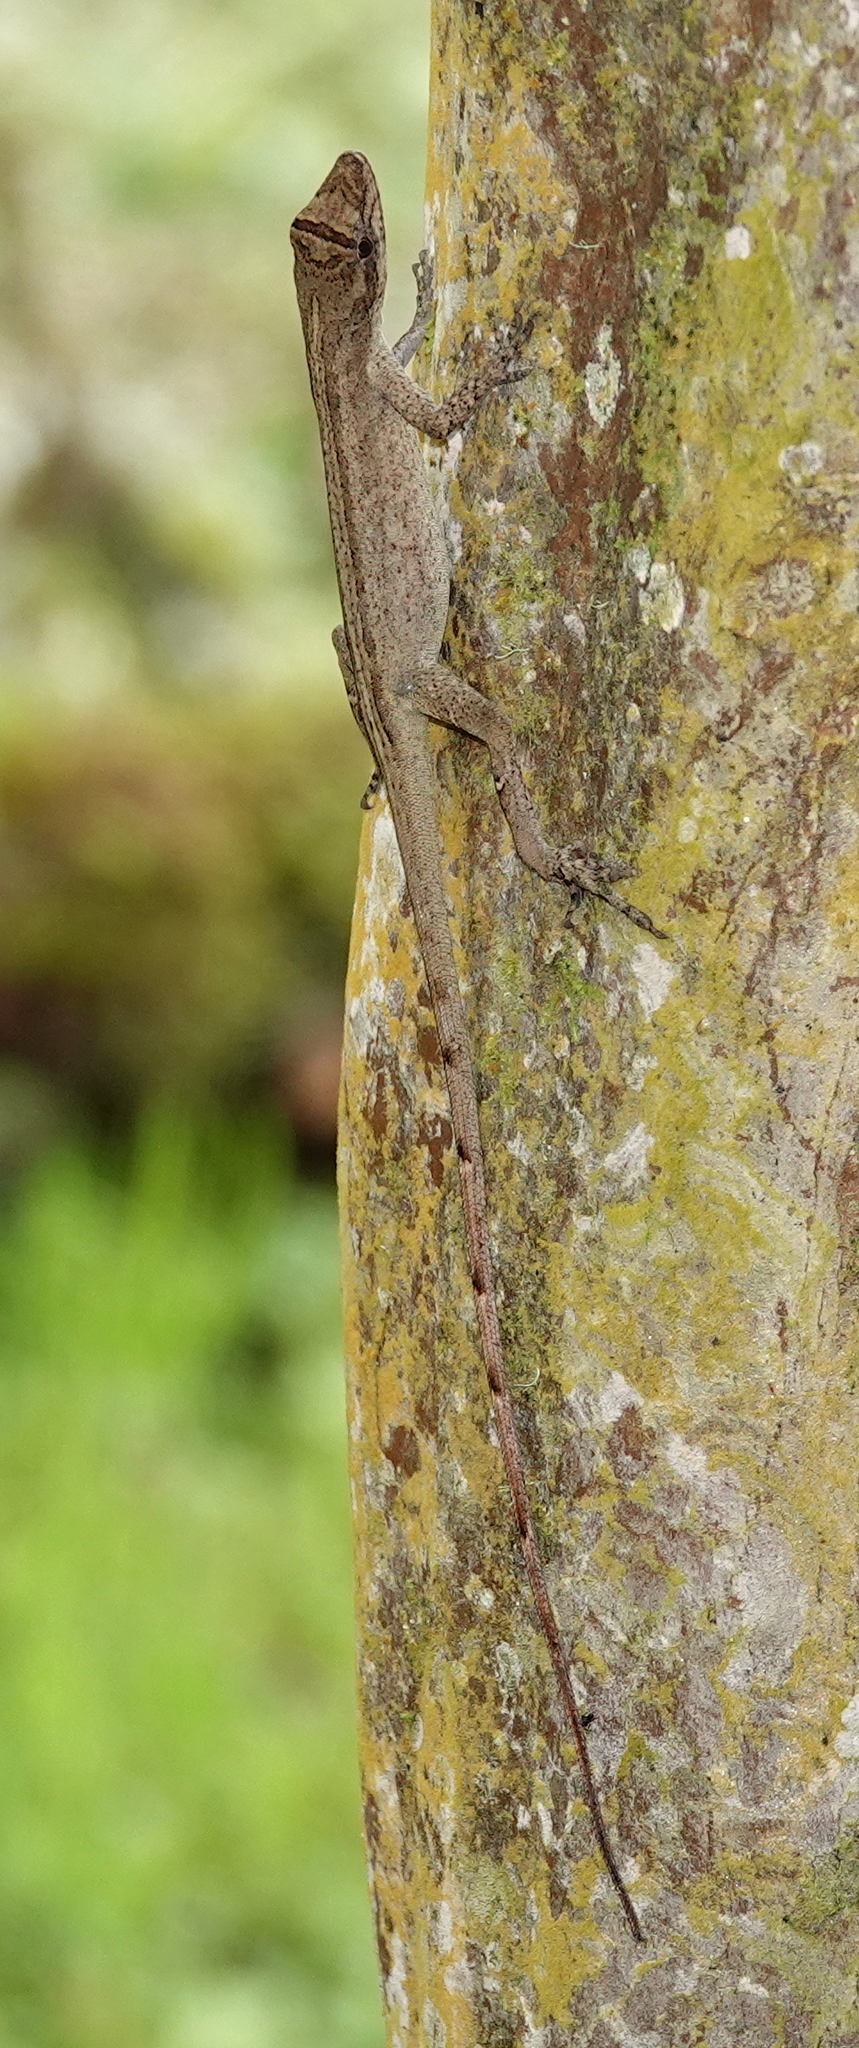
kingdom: Animalia
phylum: Chordata
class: Squamata
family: Dactyloidae
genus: Anolis
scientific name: Anolis antonii
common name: Anton's anole
